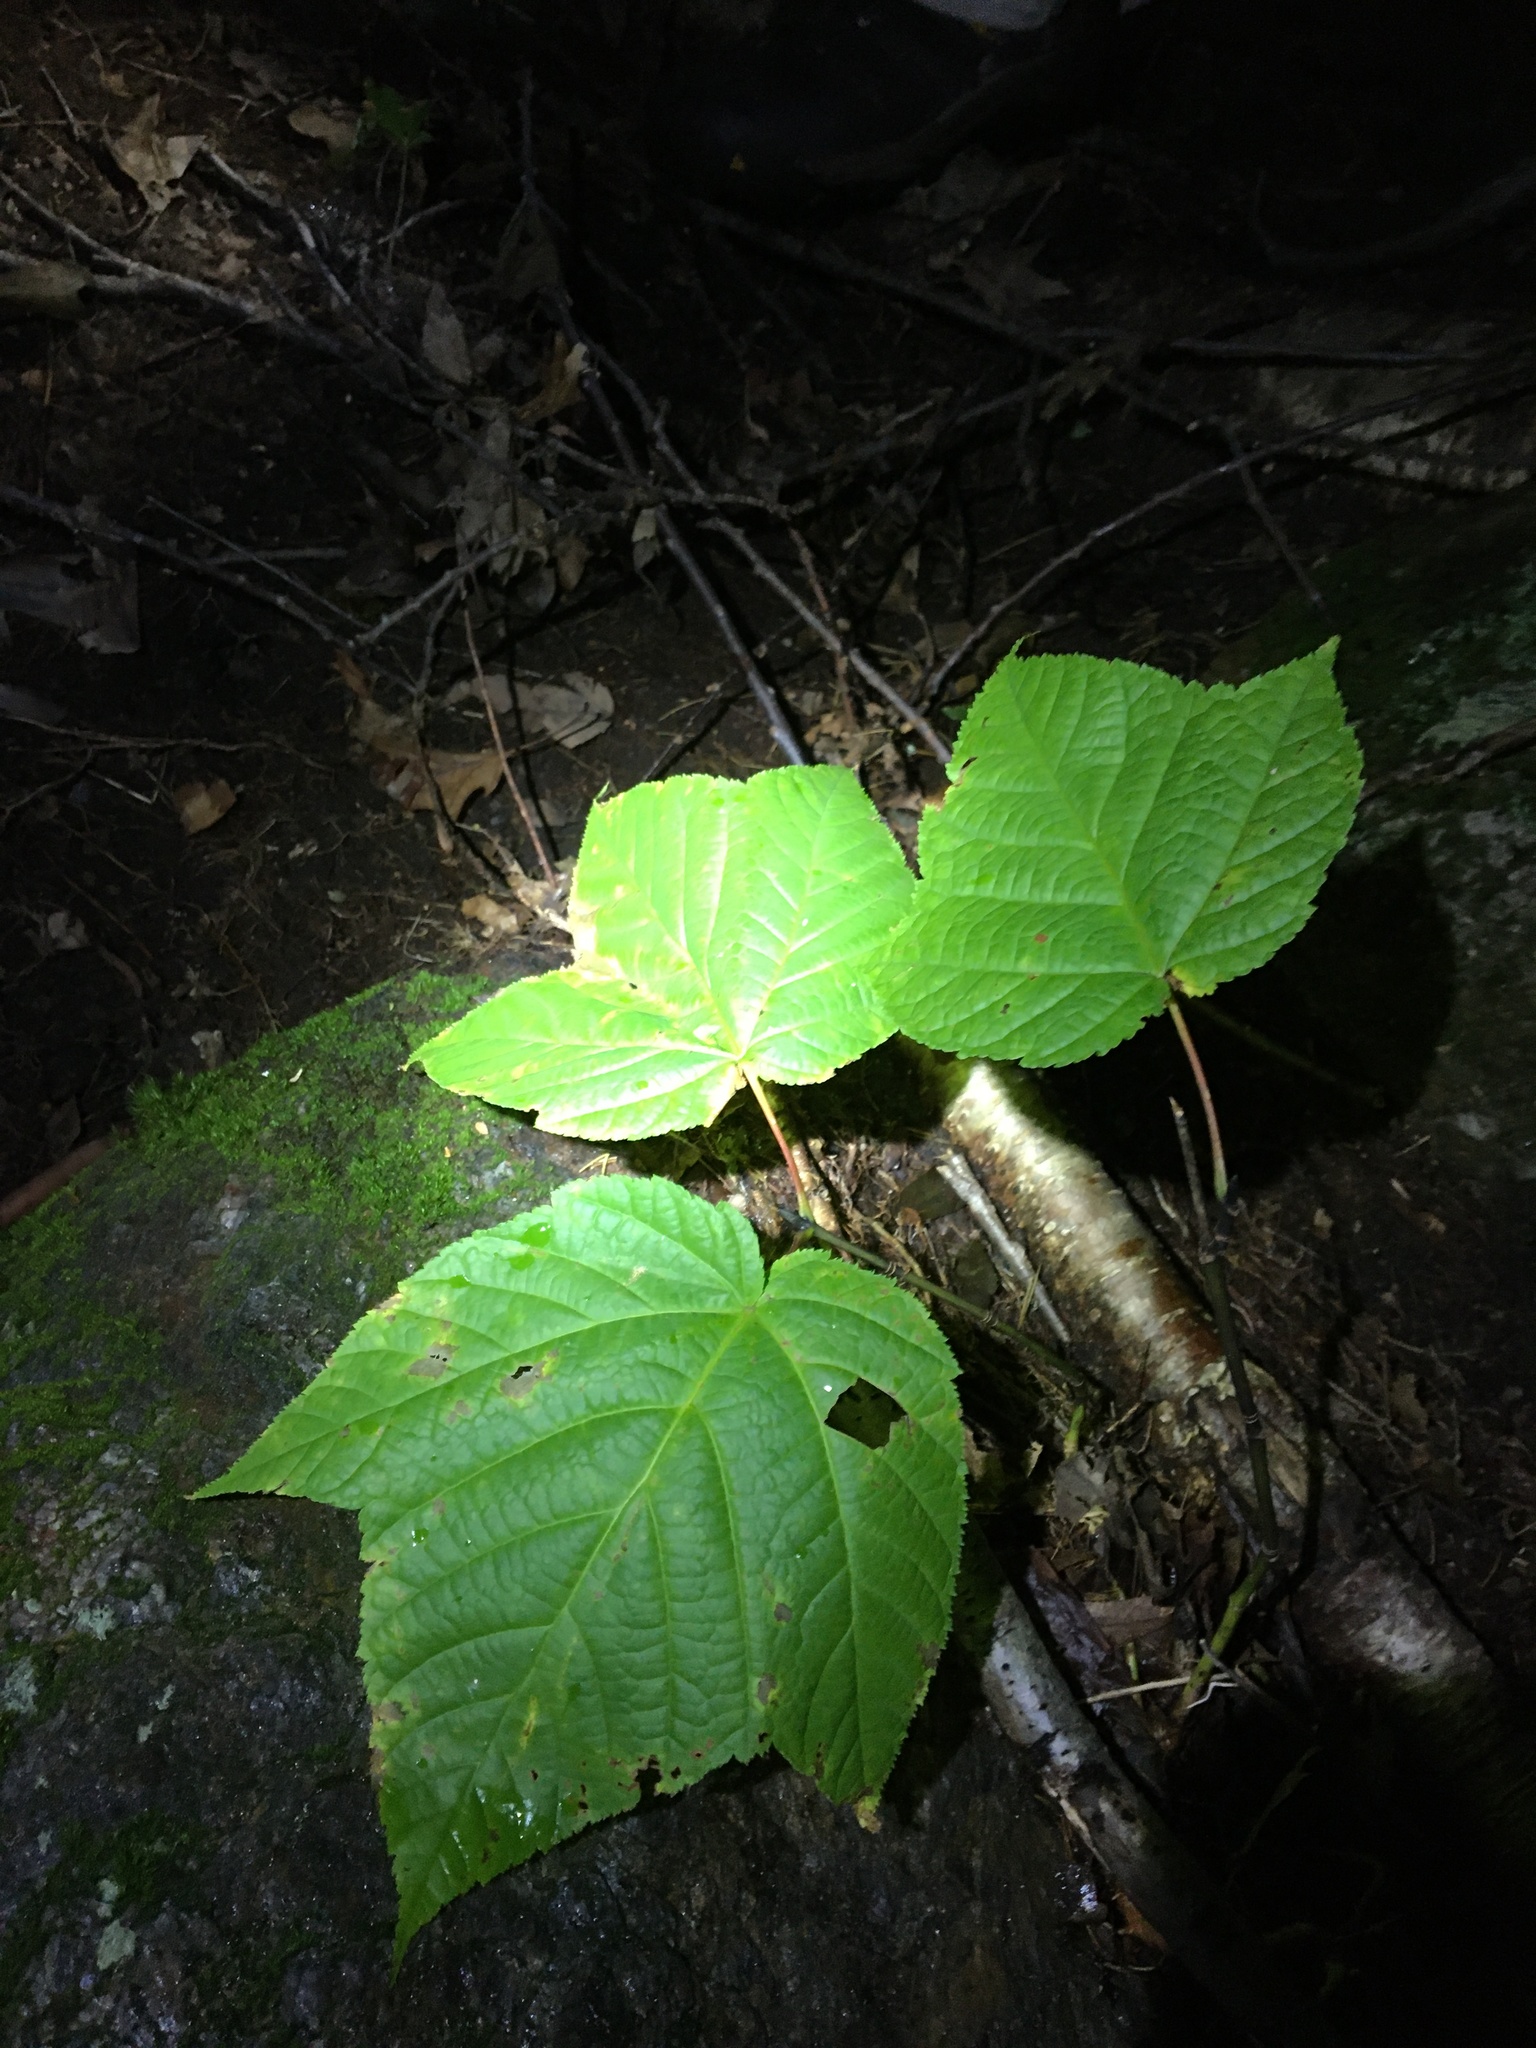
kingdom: Plantae
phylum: Tracheophyta
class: Magnoliopsida
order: Sapindales
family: Sapindaceae
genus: Acer
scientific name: Acer pensylvanicum
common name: Moosewood
